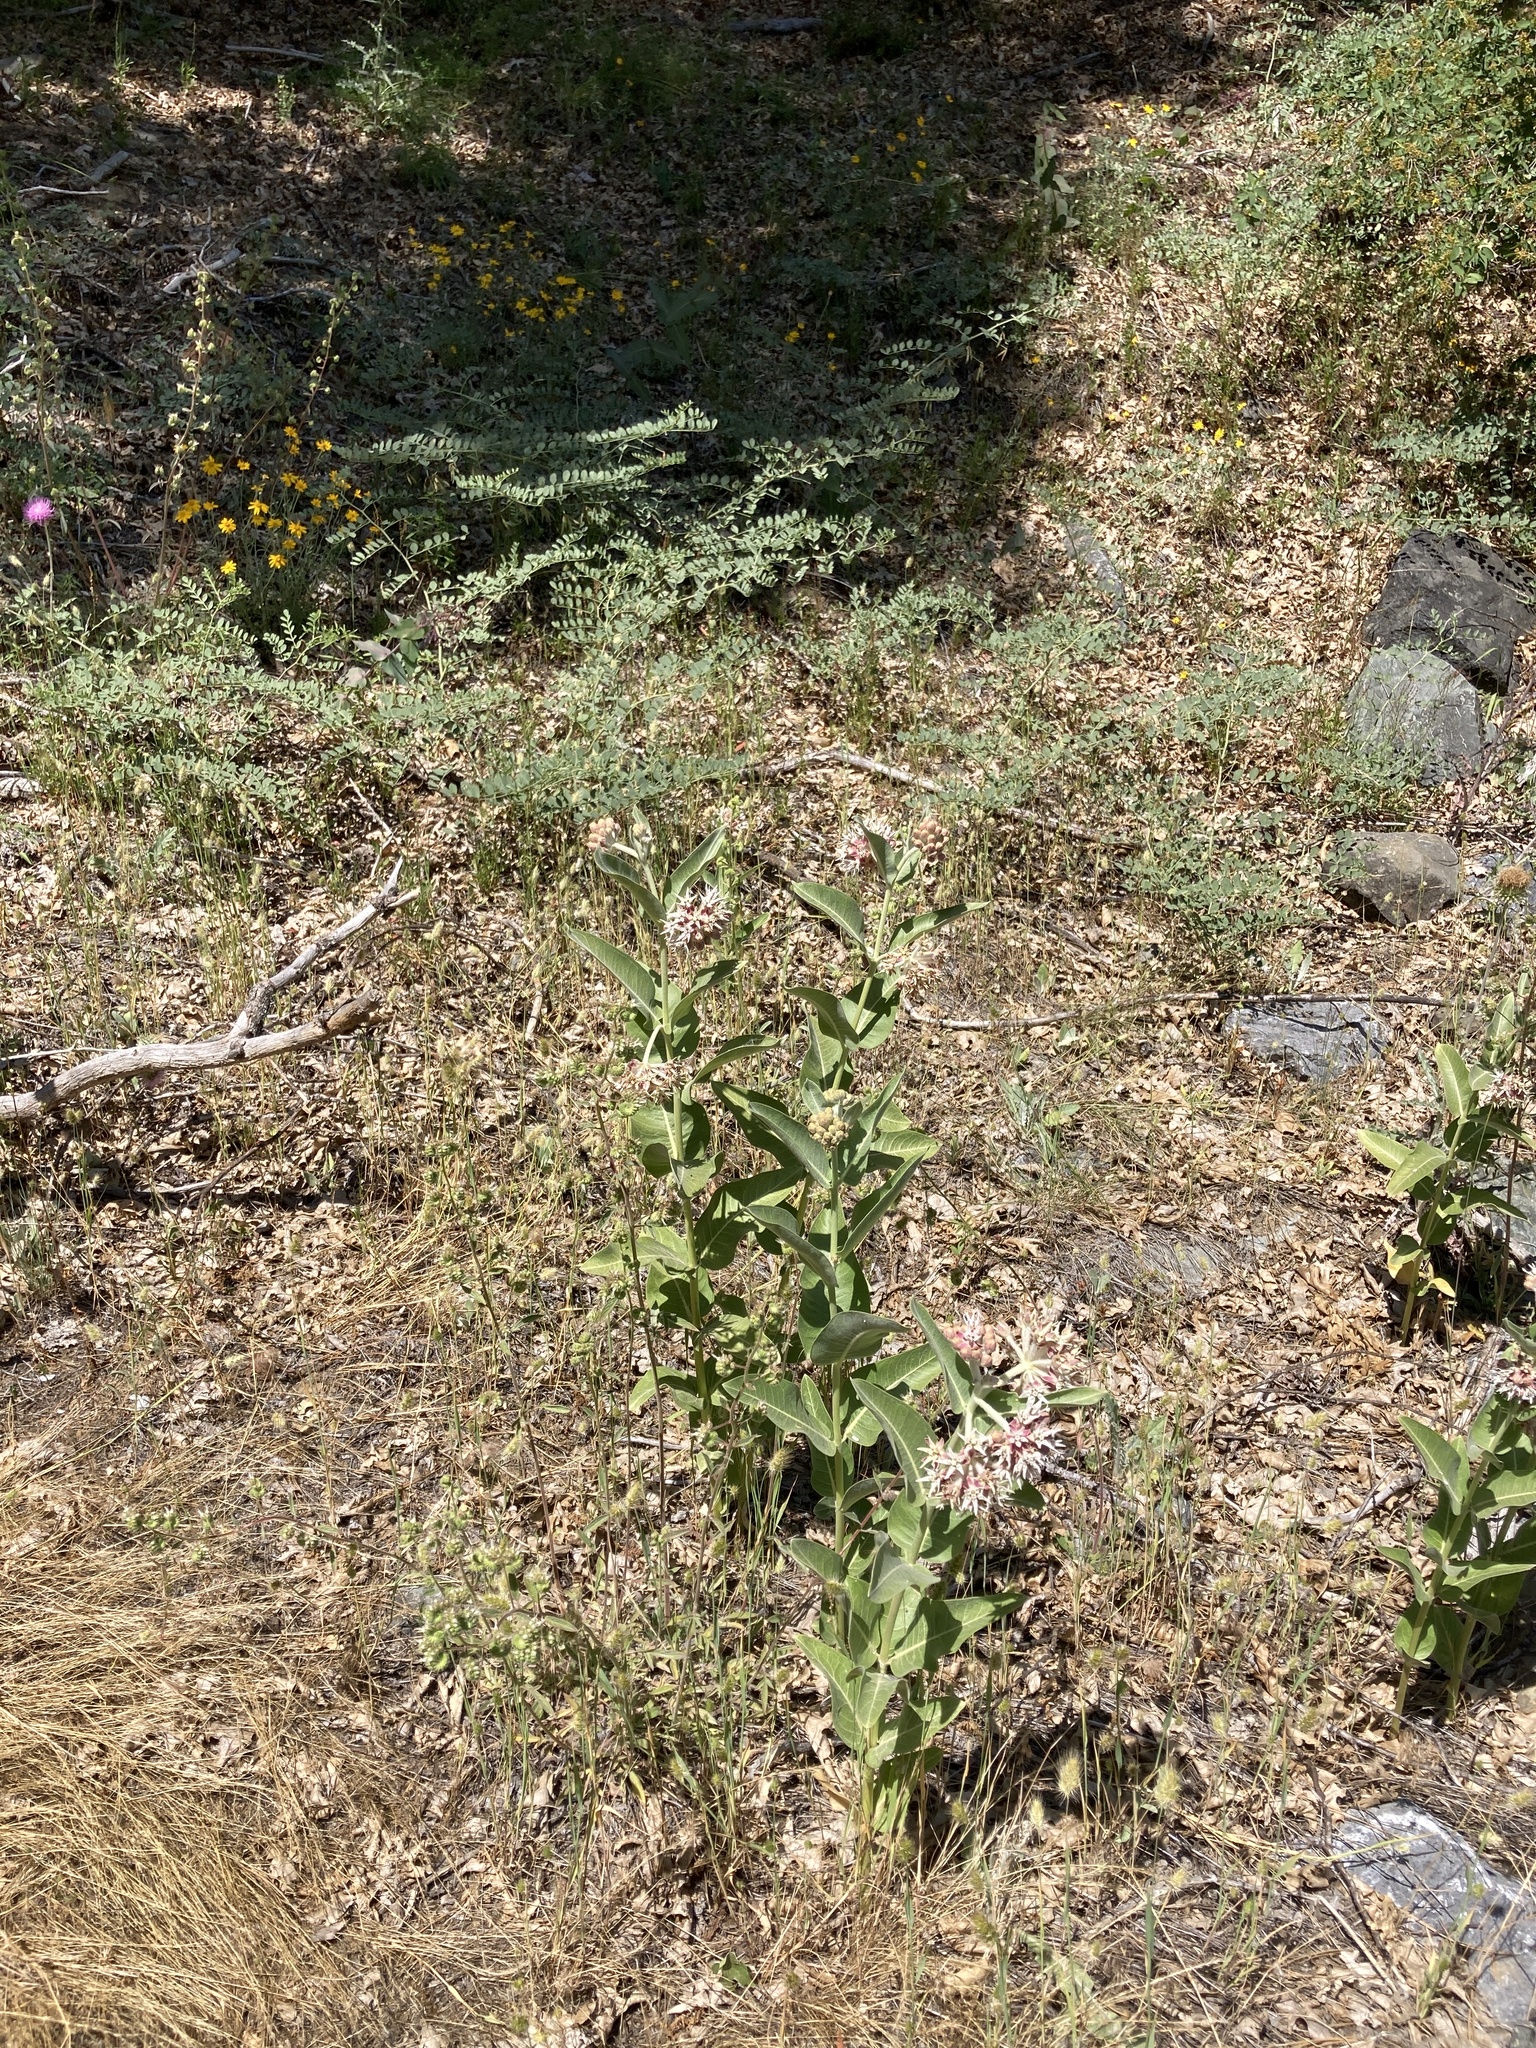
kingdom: Plantae
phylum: Tracheophyta
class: Magnoliopsida
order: Gentianales
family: Apocynaceae
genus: Asclepias
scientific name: Asclepias speciosa
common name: Showy milkweed
